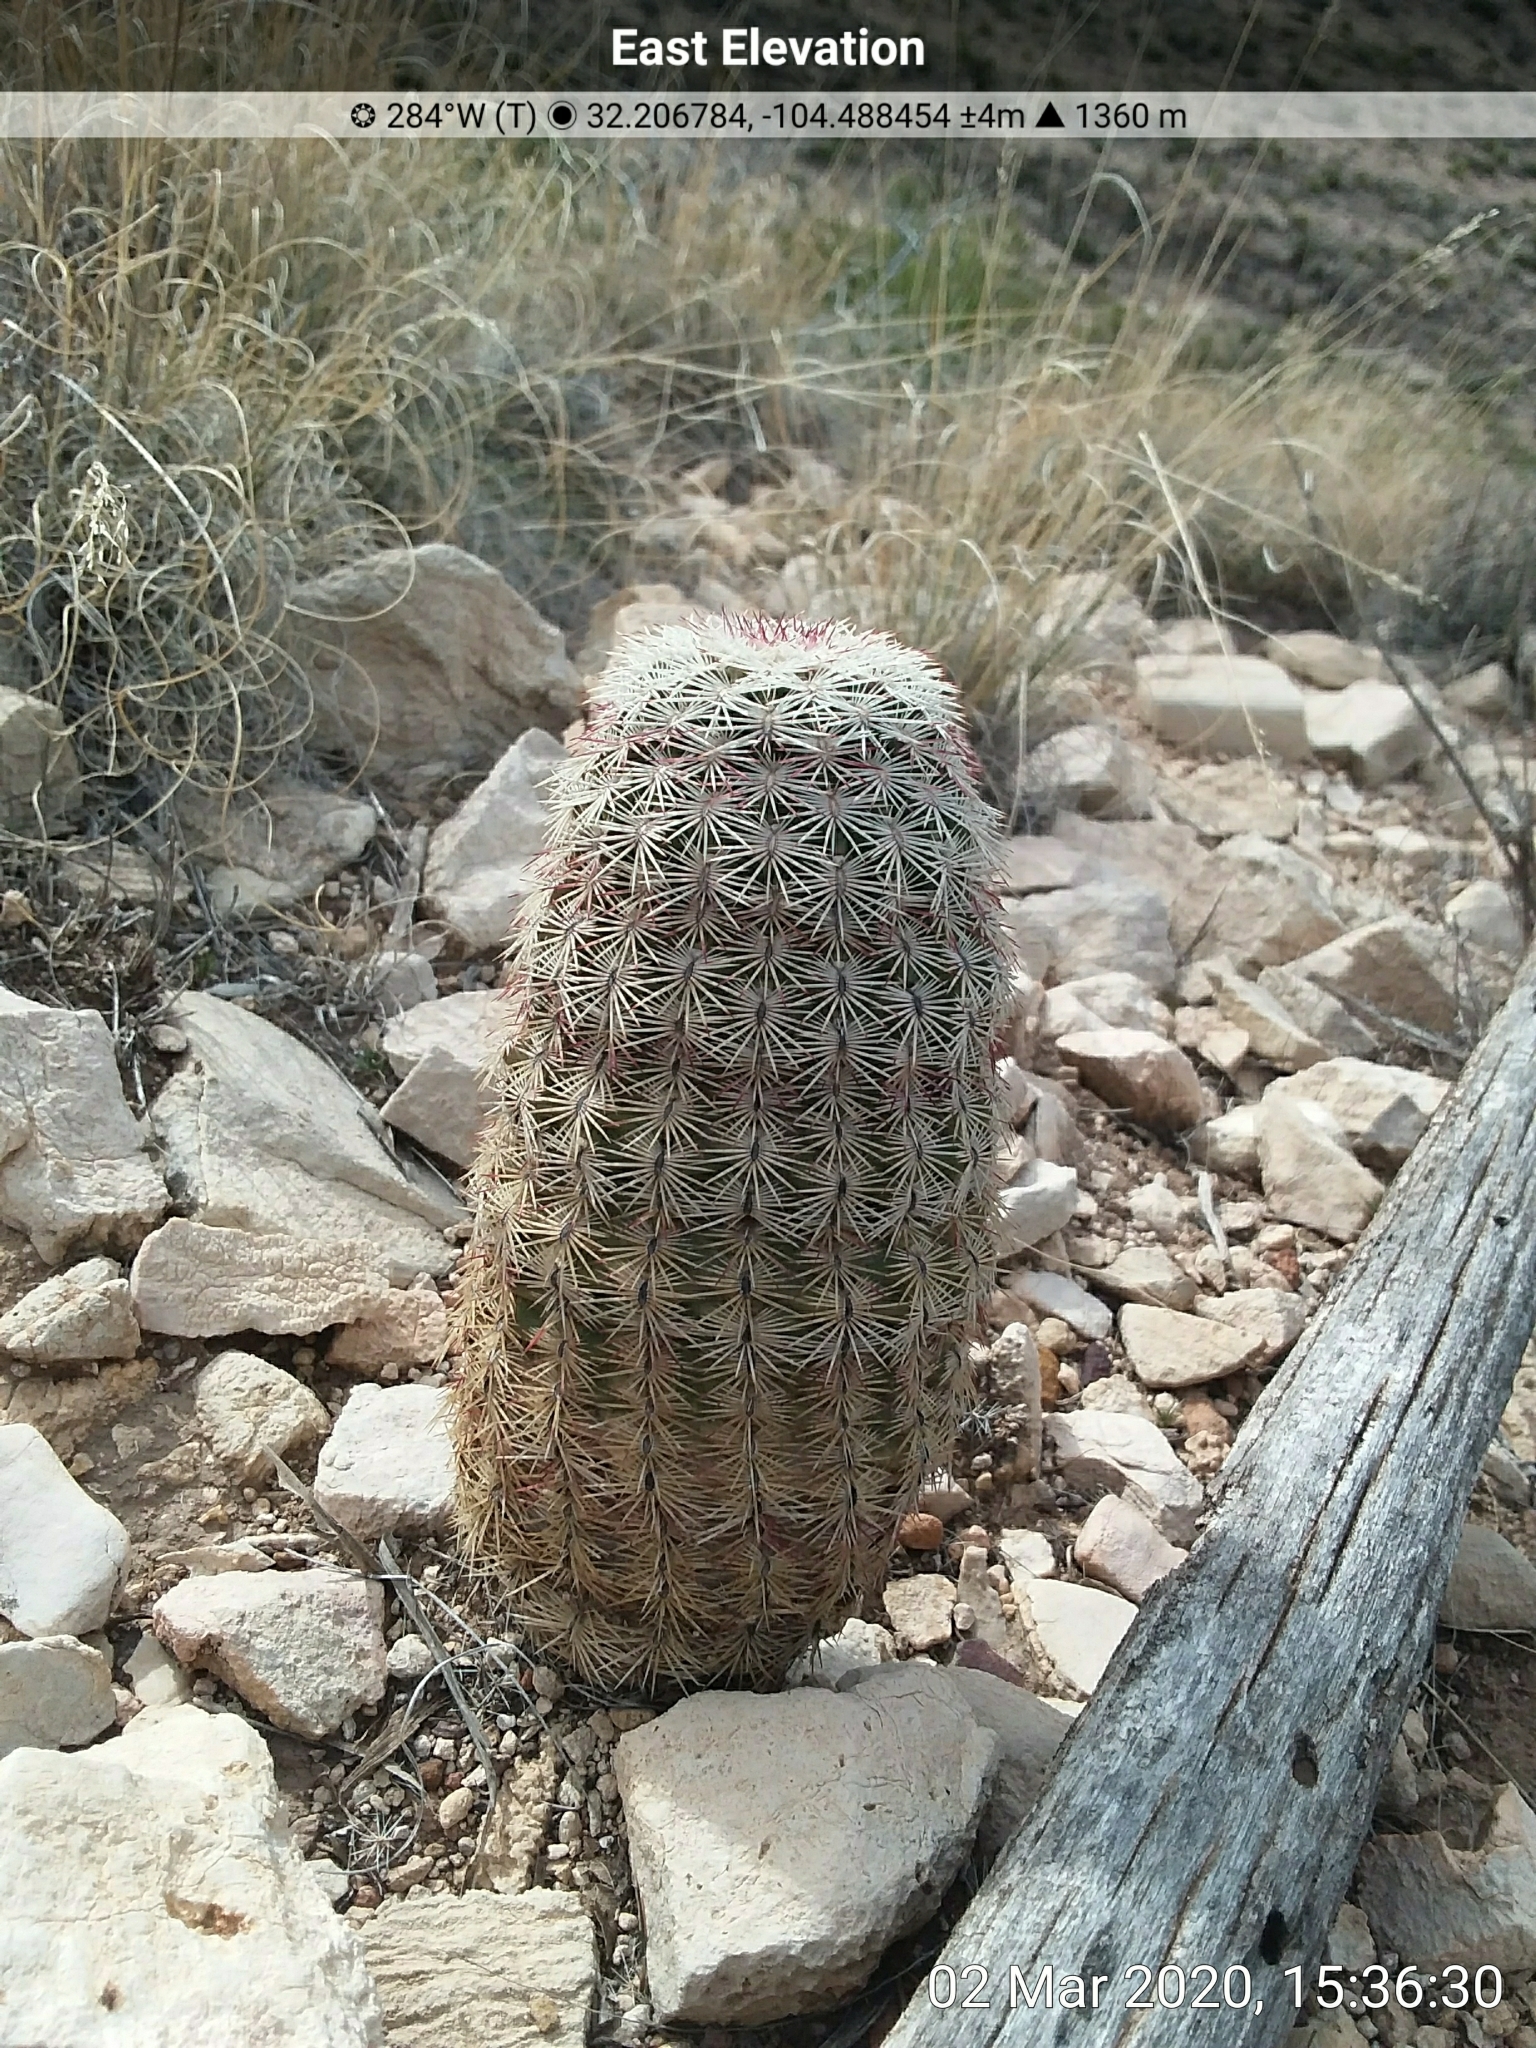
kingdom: Plantae
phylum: Tracheophyta
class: Magnoliopsida
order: Caryophyllales
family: Cactaceae
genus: Echinocereus
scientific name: Echinocereus viridiflorus
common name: Nylon hedgehog cactus
